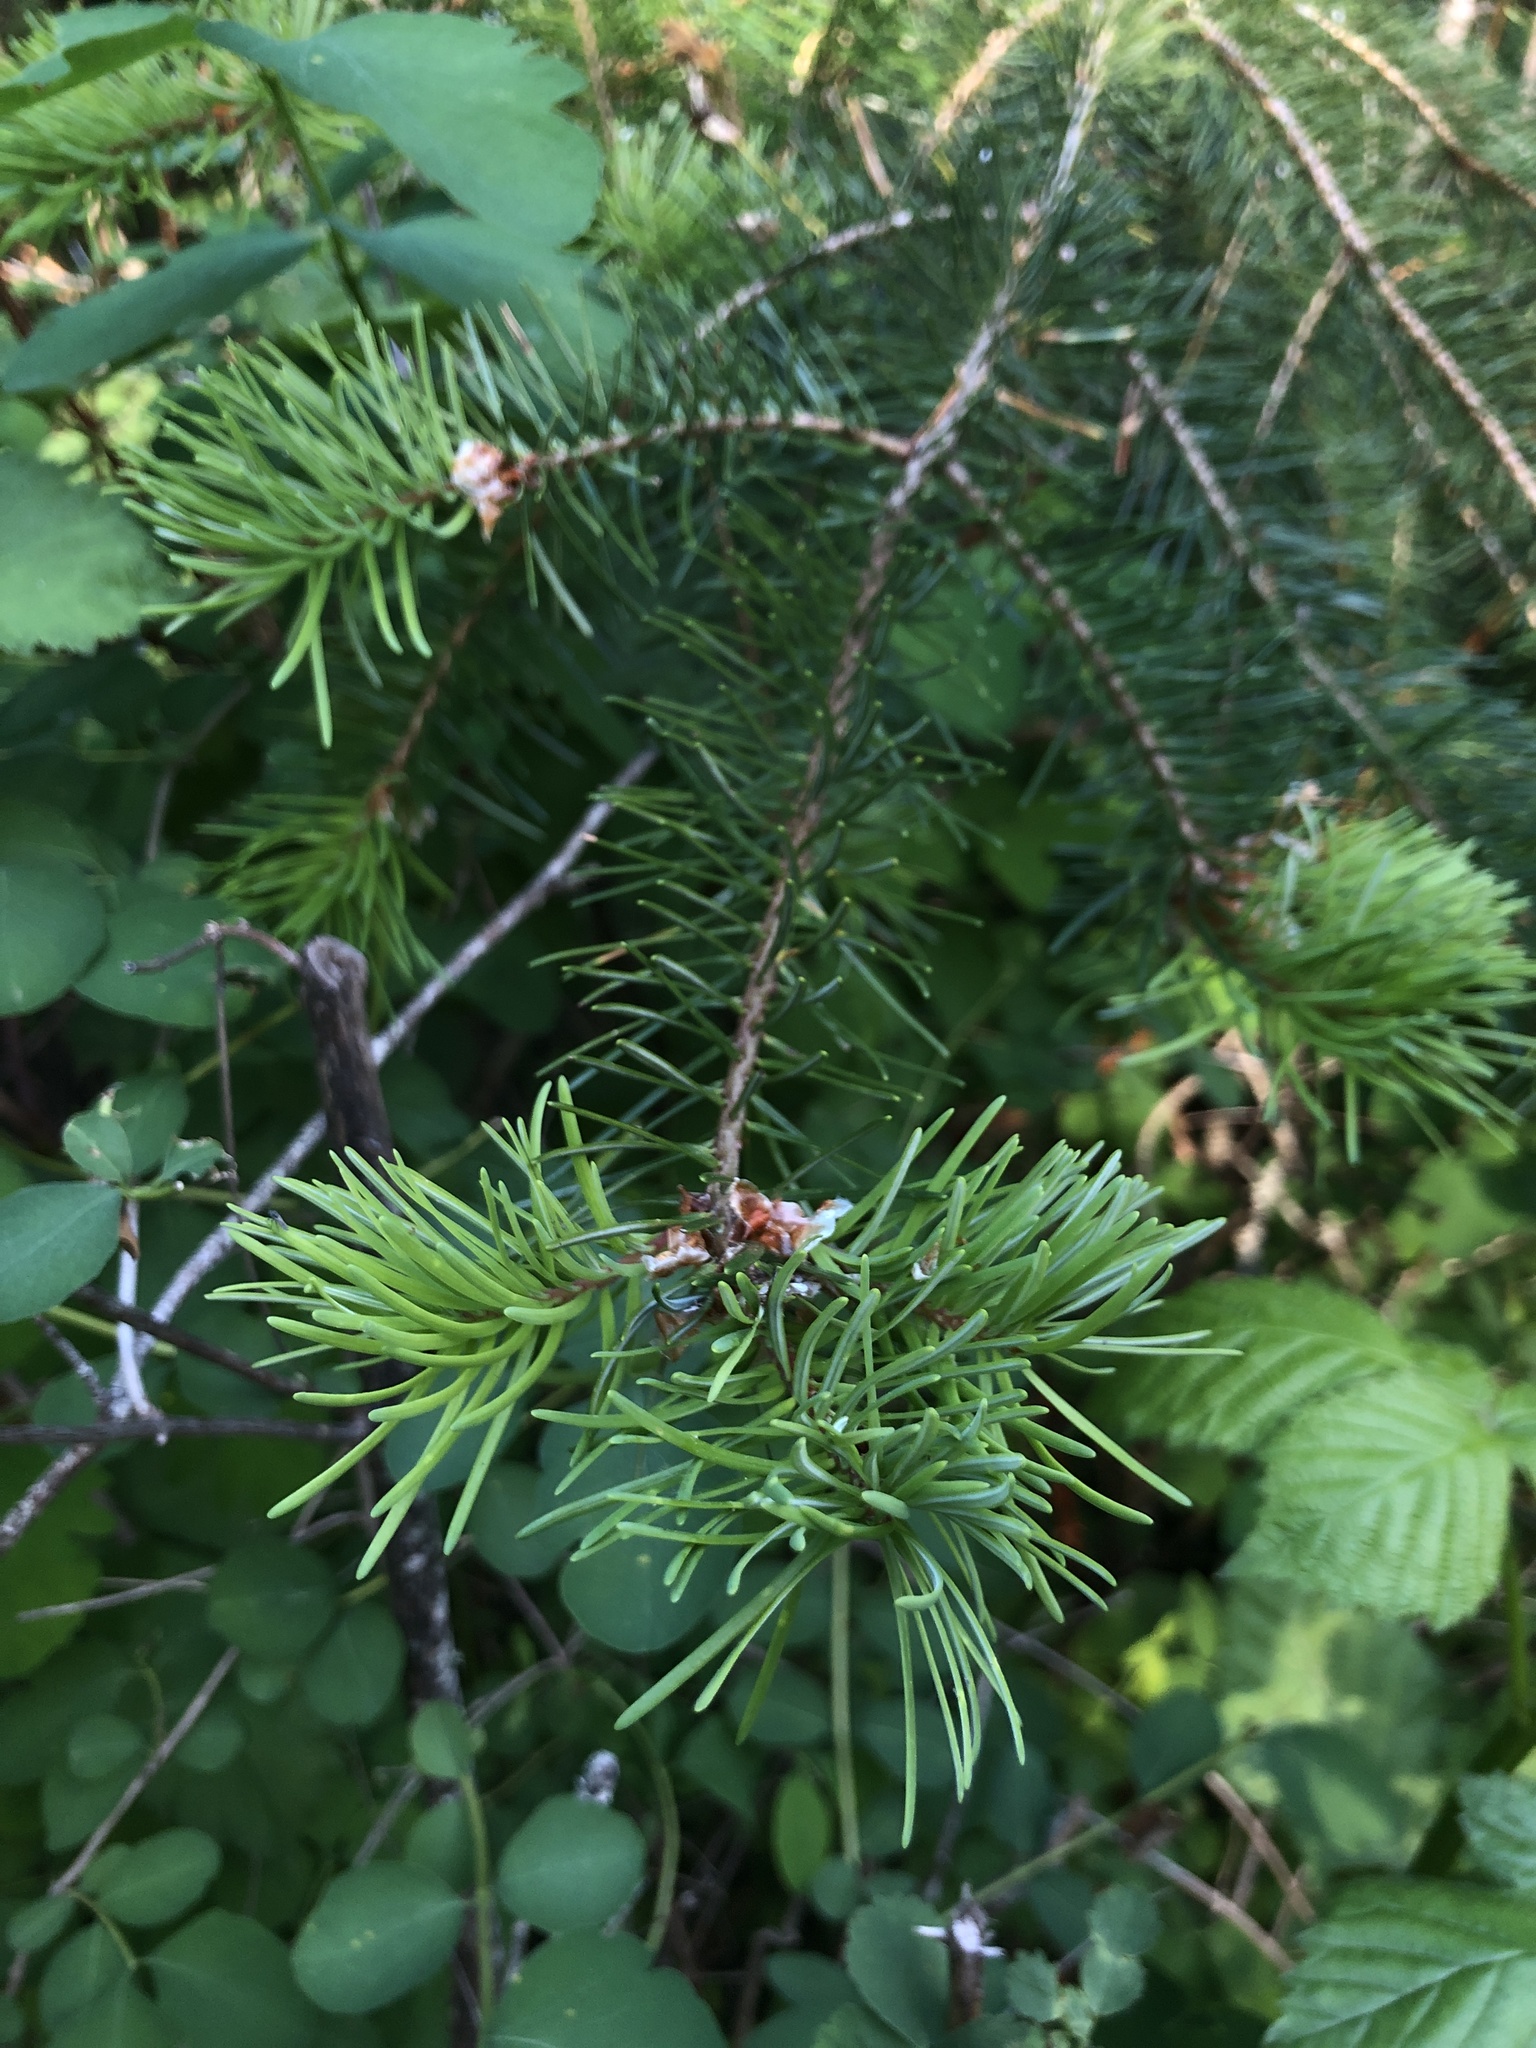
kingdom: Plantae
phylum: Tracheophyta
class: Pinopsida
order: Pinales
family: Pinaceae
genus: Pseudotsuga
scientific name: Pseudotsuga menziesii
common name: Douglas fir
